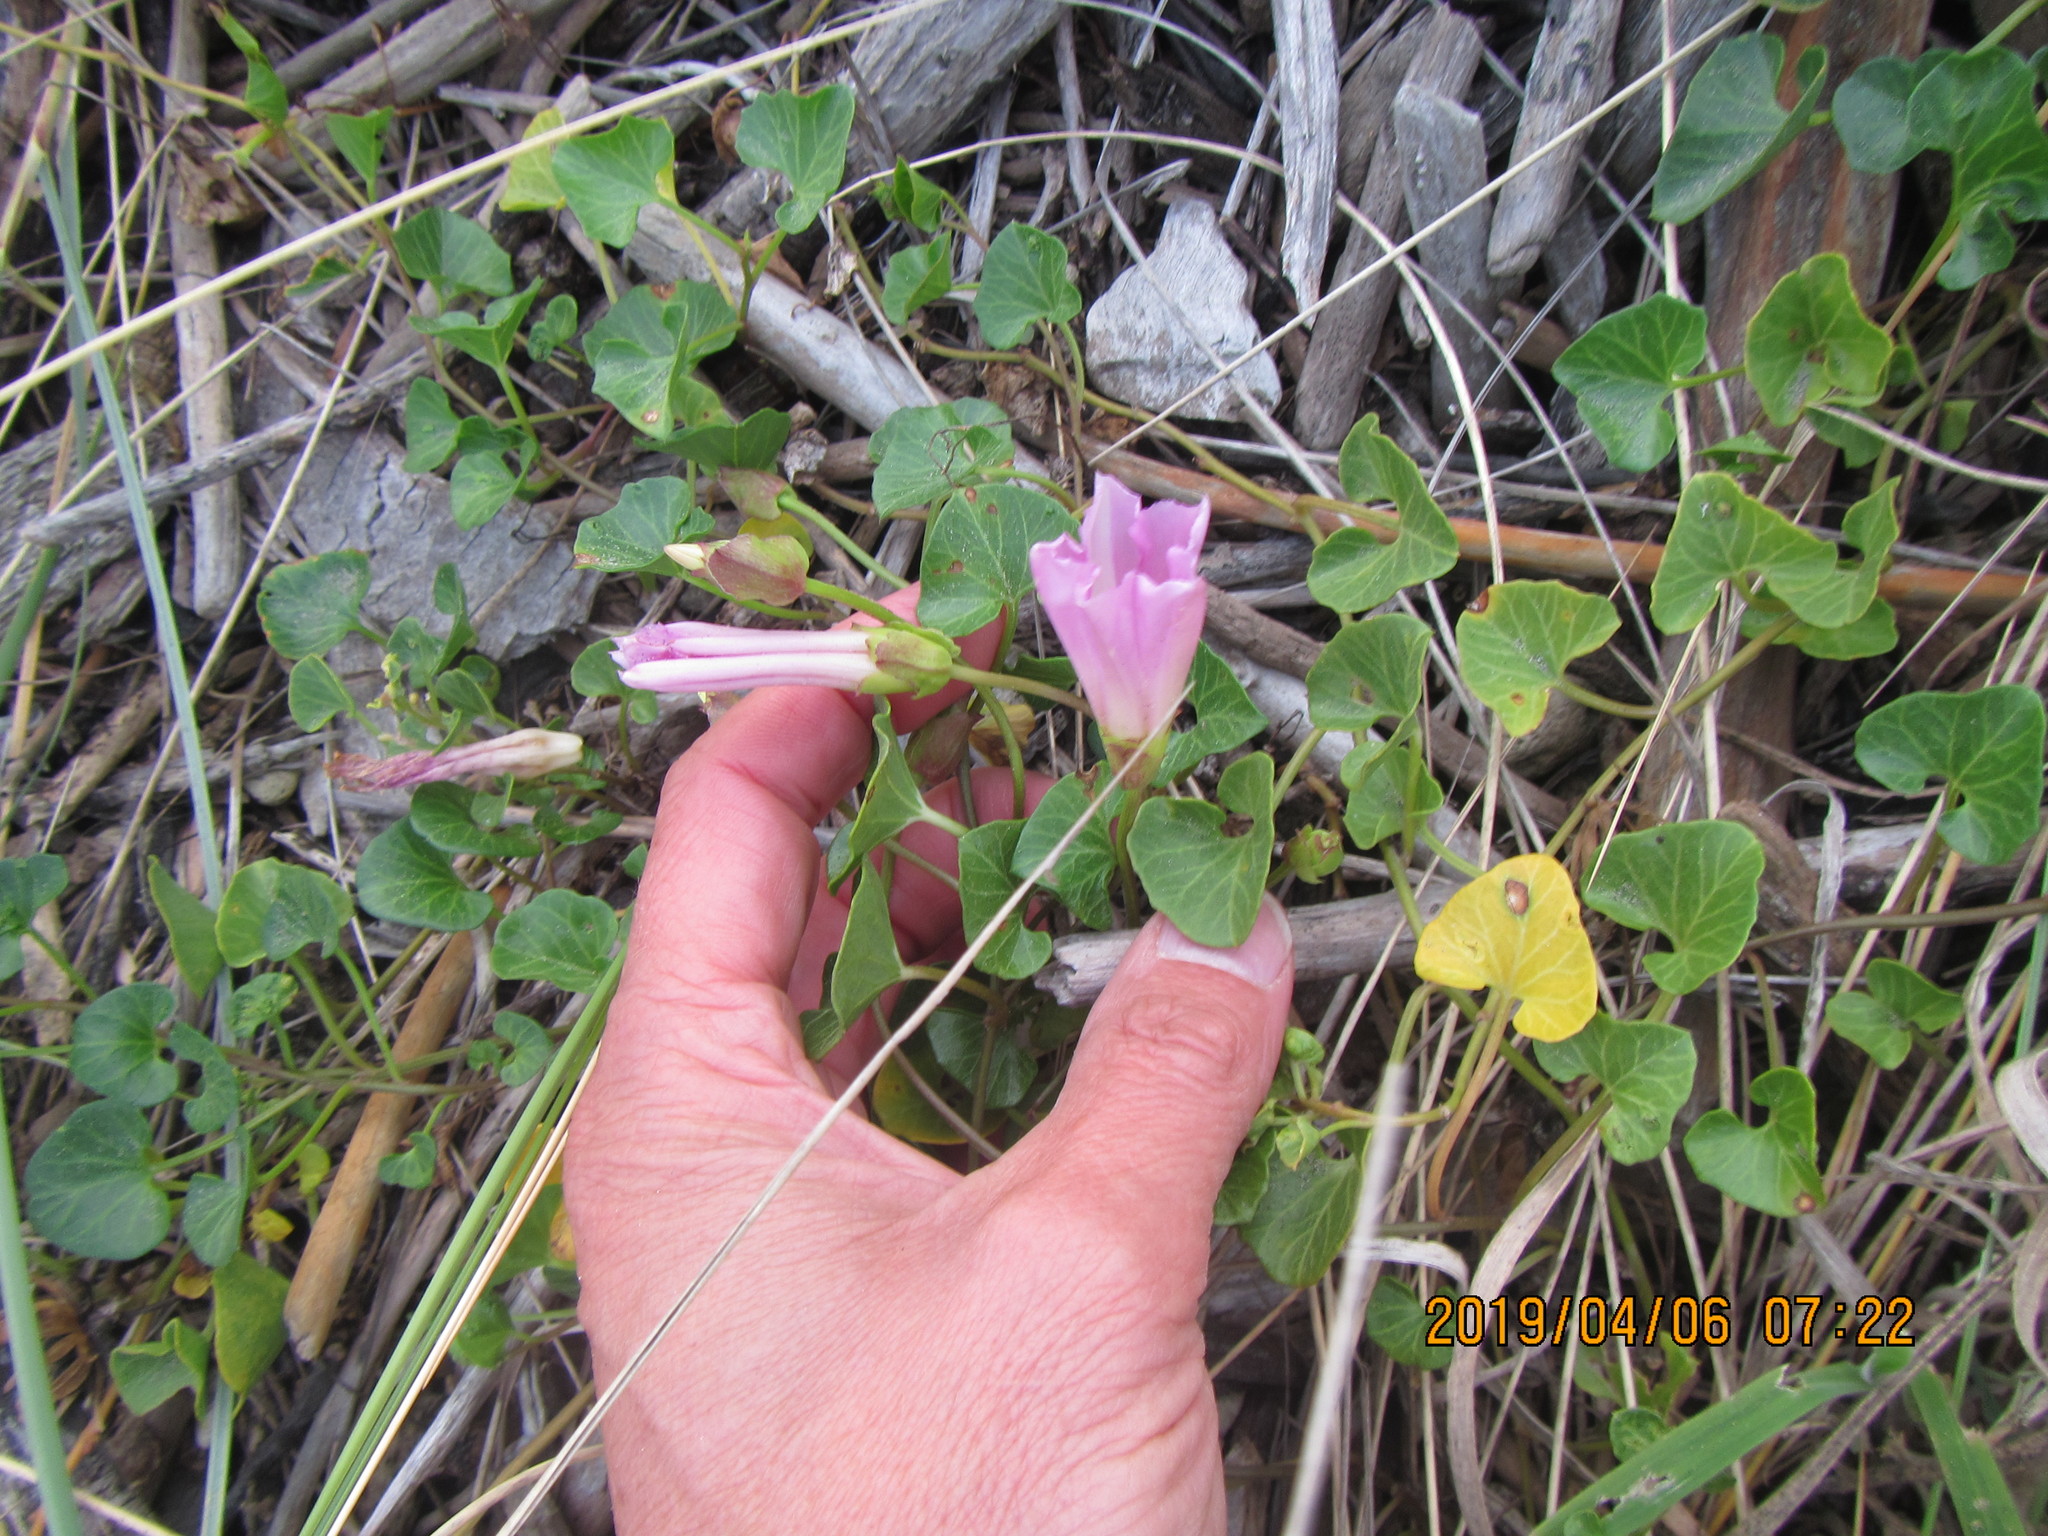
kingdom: Plantae
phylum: Tracheophyta
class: Magnoliopsida
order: Solanales
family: Convolvulaceae
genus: Calystegia
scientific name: Calystegia soldanella
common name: Sea bindweed
